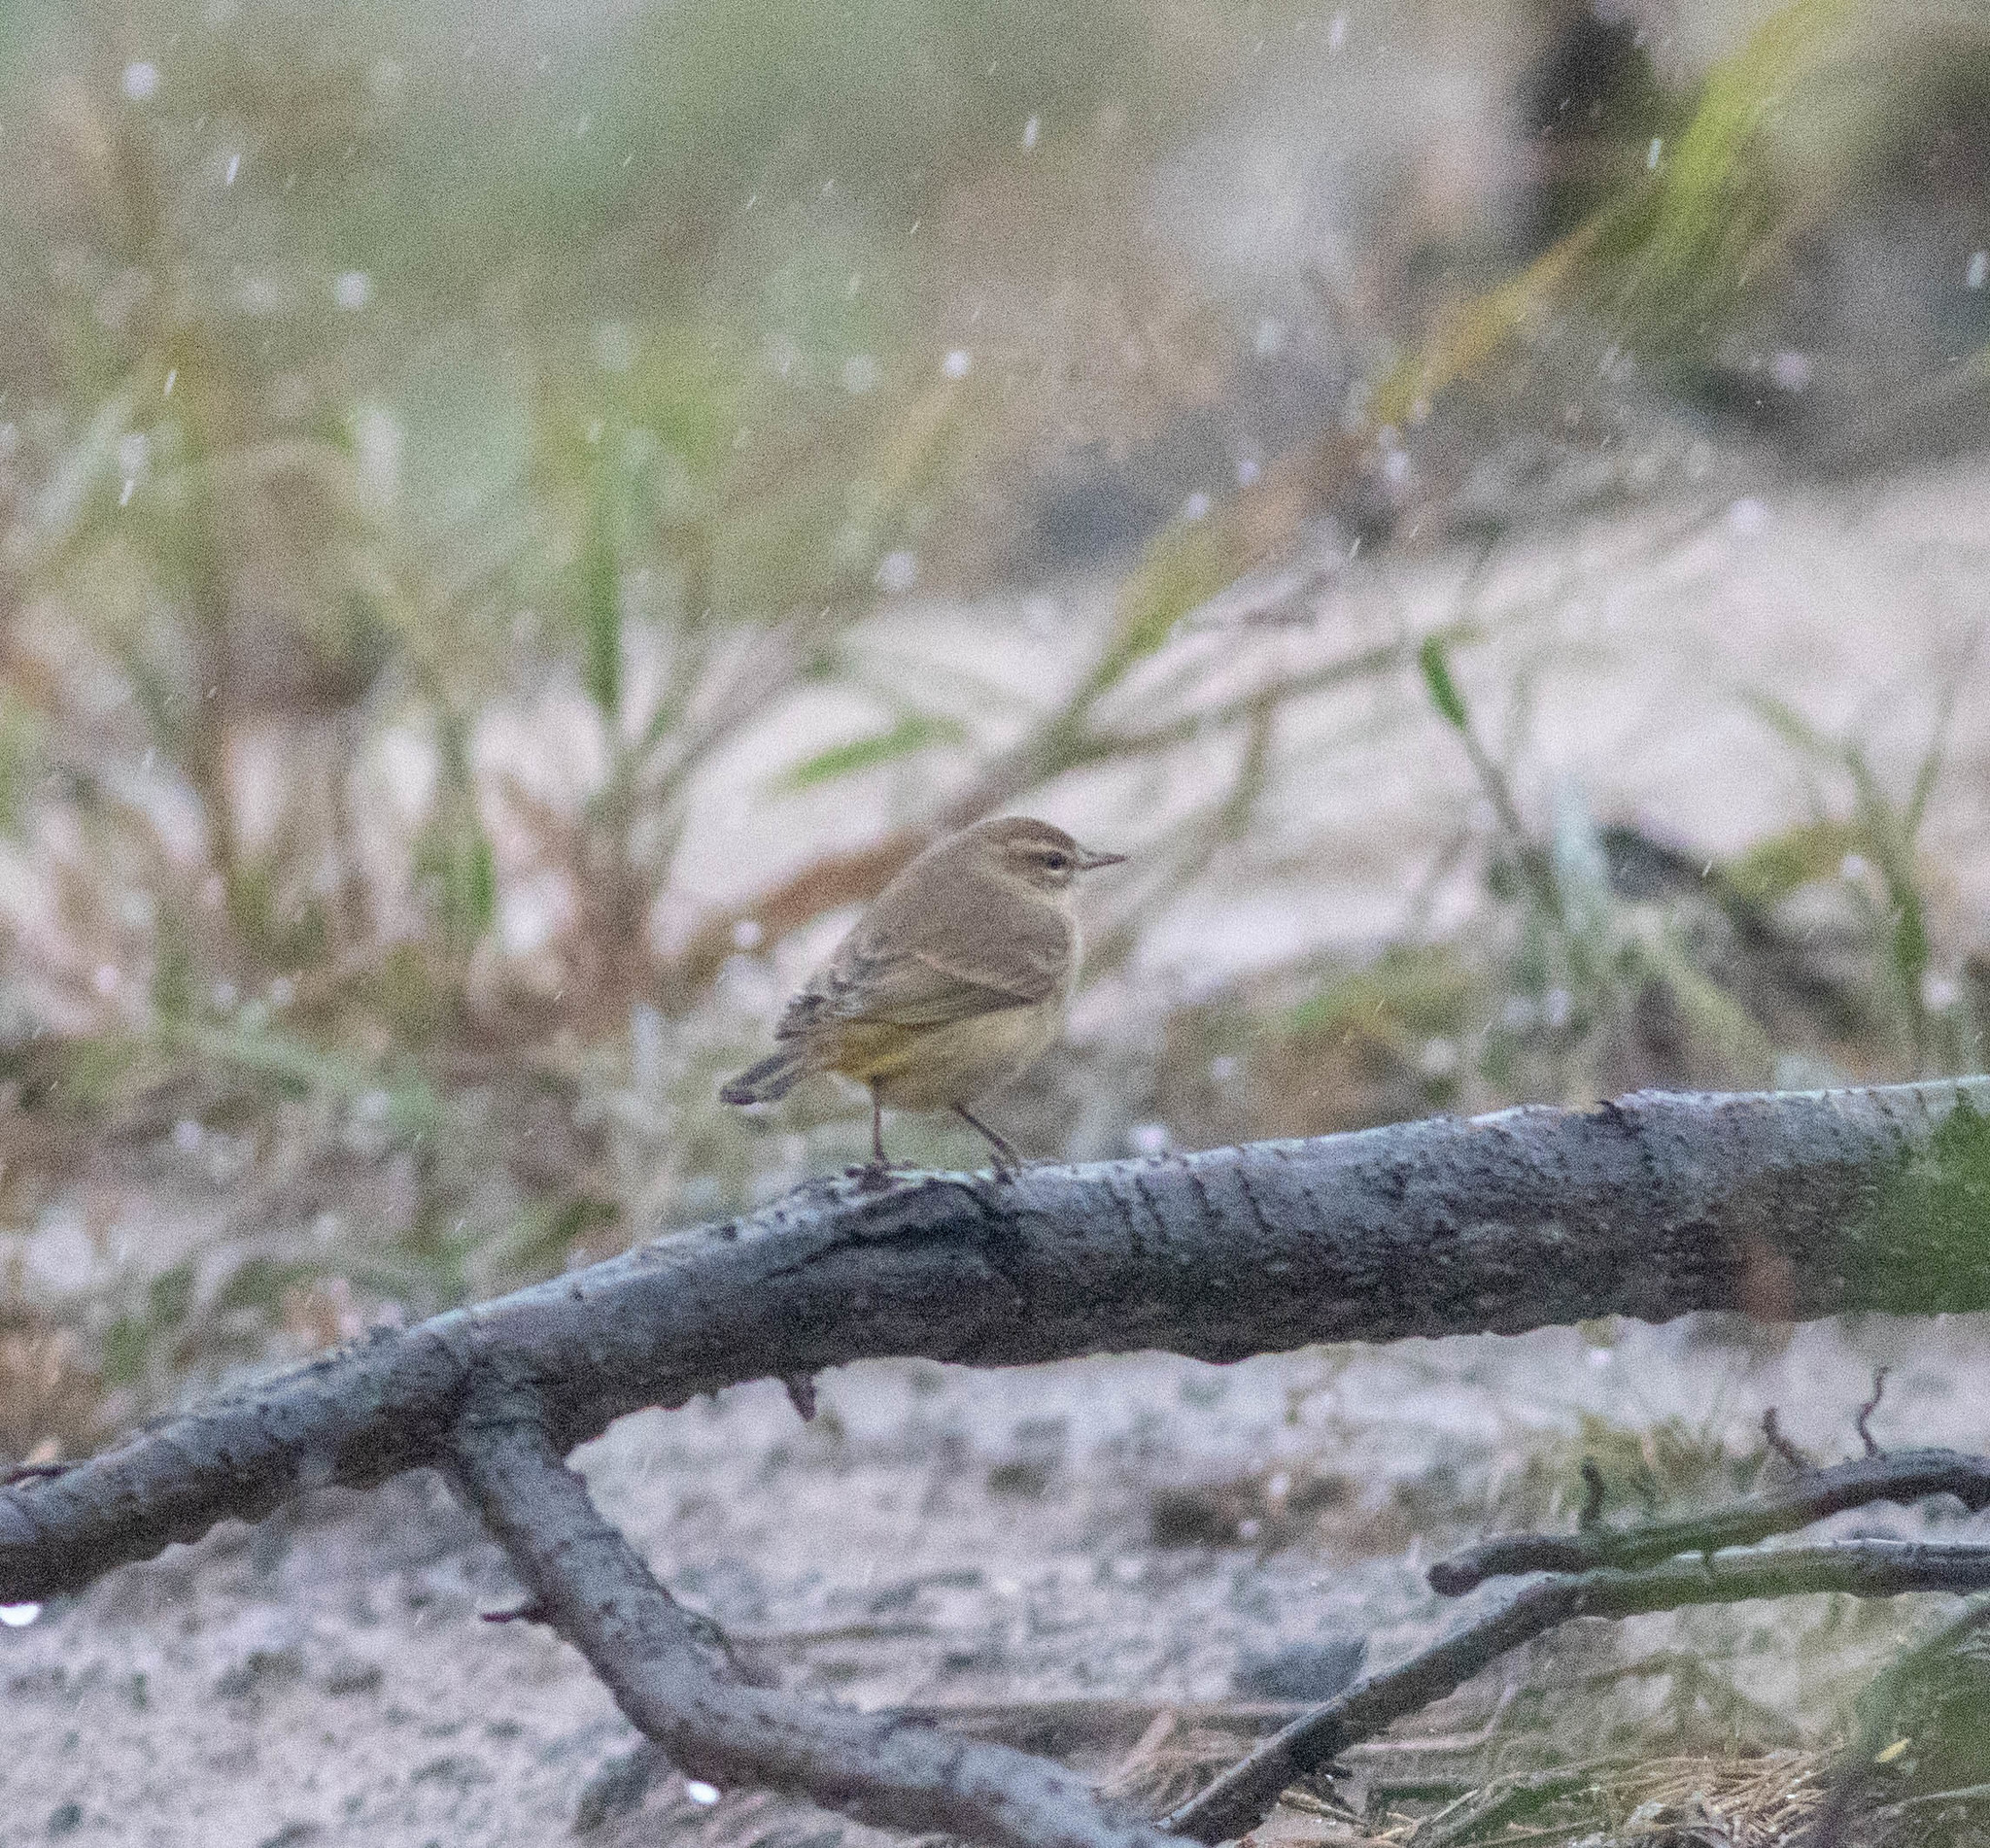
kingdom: Animalia
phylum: Chordata
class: Aves
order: Passeriformes
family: Parulidae
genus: Setophaga
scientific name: Setophaga palmarum
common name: Palm warbler
